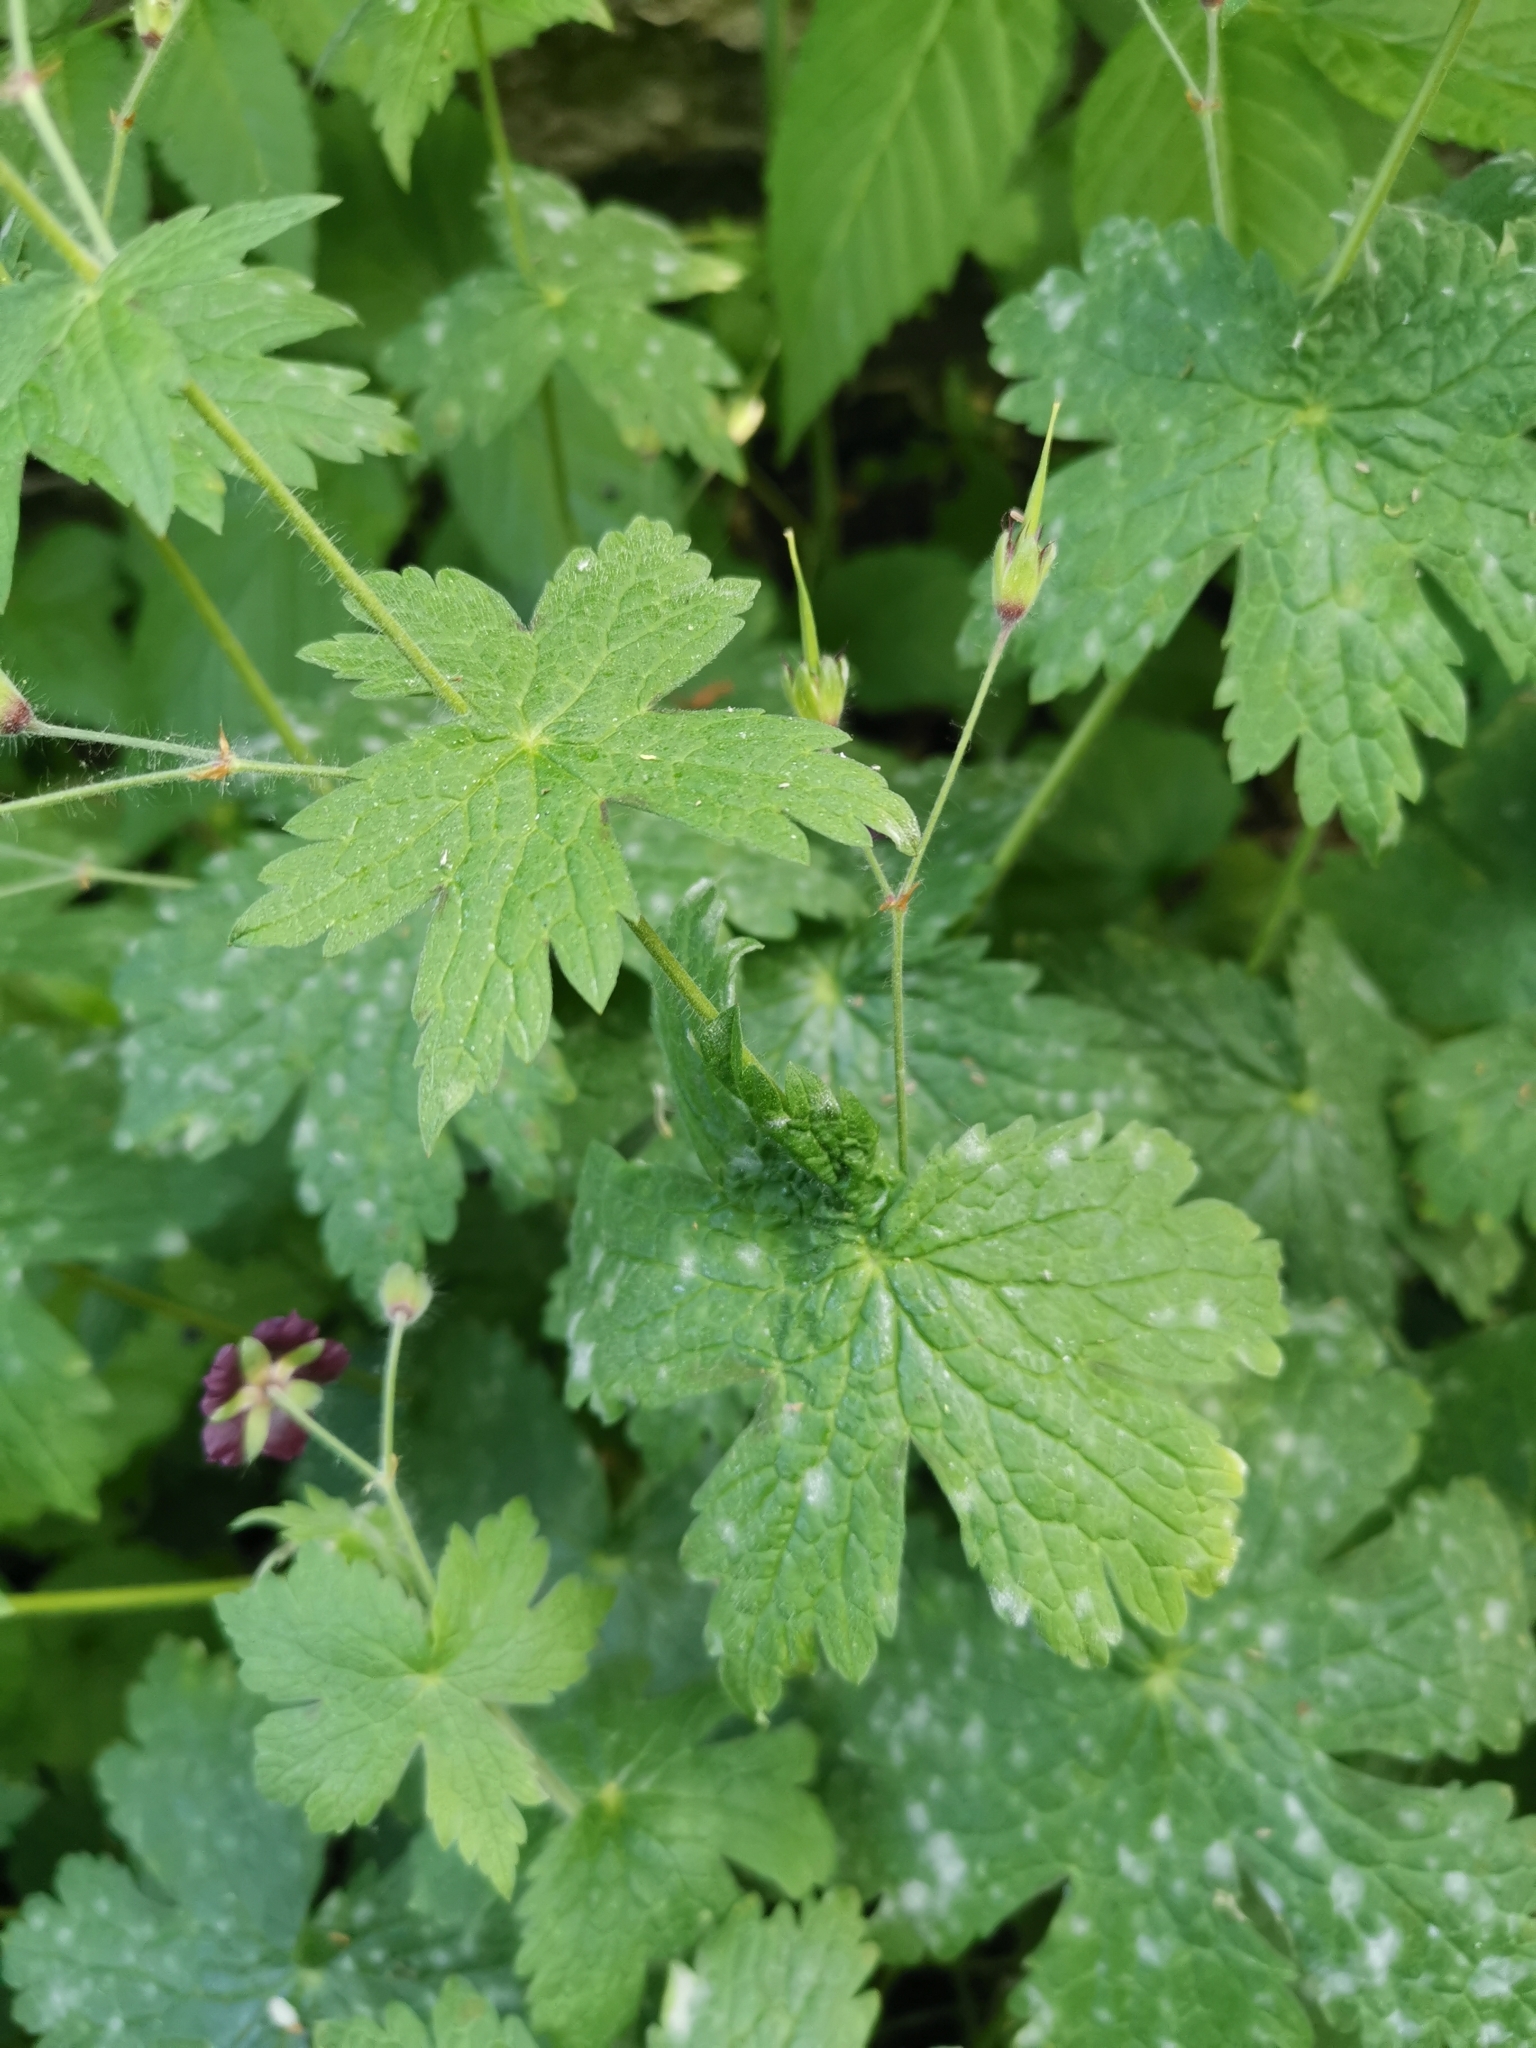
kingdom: Plantae
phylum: Tracheophyta
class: Magnoliopsida
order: Geraniales
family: Geraniaceae
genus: Geranium
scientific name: Geranium phaeum
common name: Dusky crane's-bill
